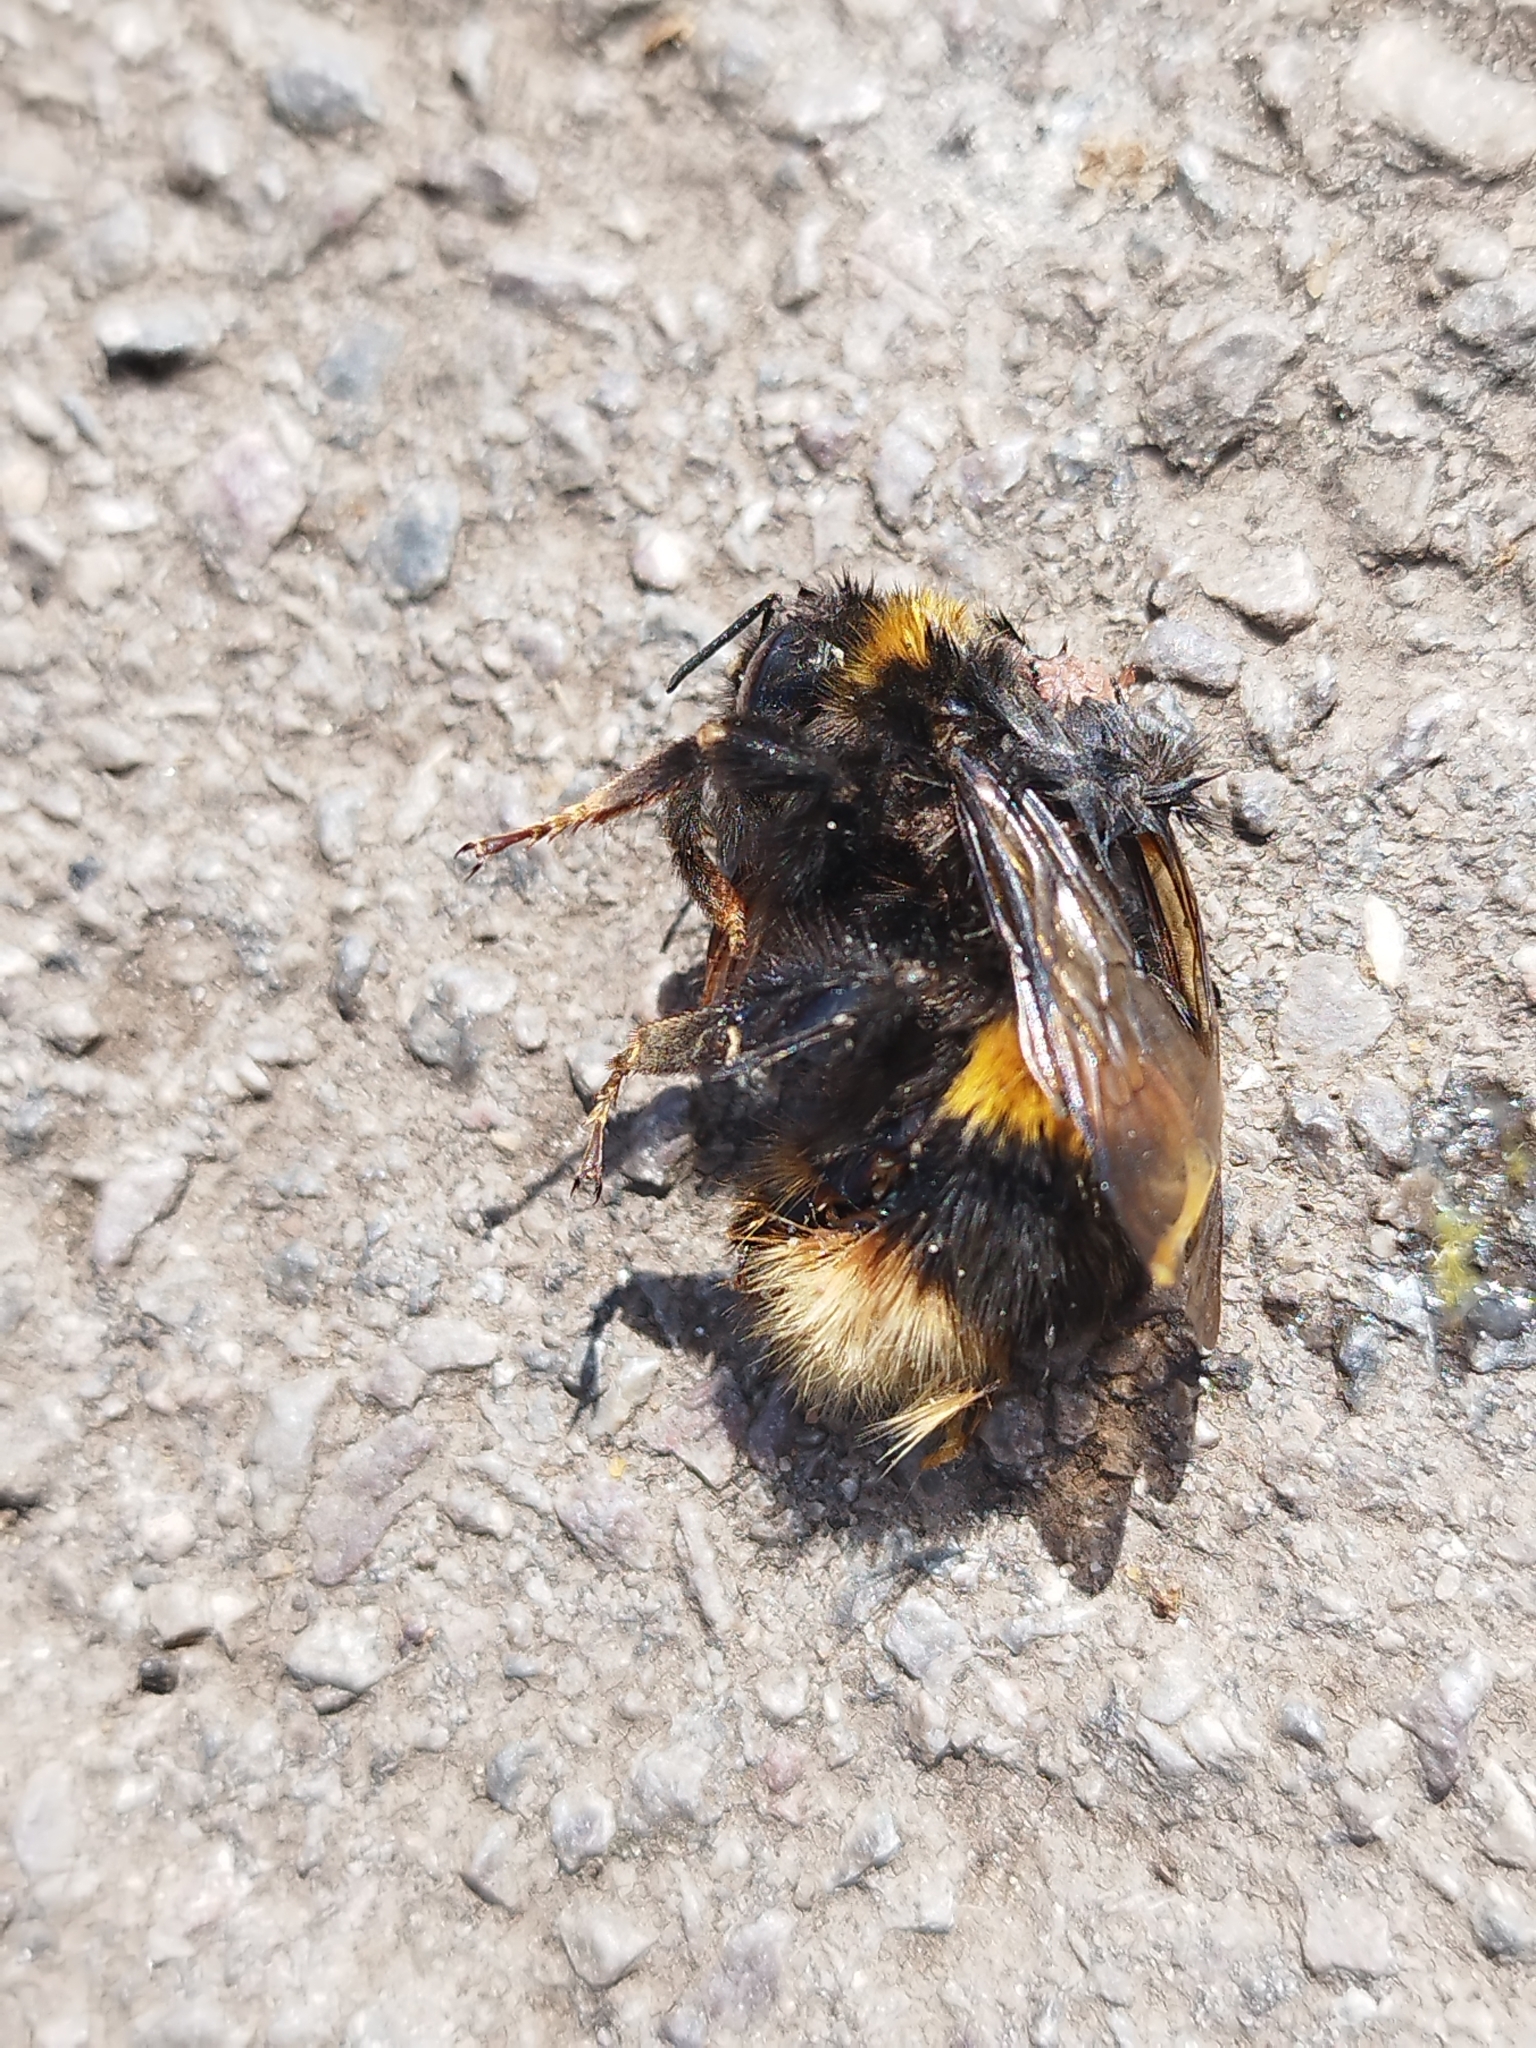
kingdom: Animalia
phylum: Arthropoda
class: Insecta
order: Hymenoptera
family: Apidae
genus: Bombus
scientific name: Bombus terrestris
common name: Buff-tailed bumblebee
